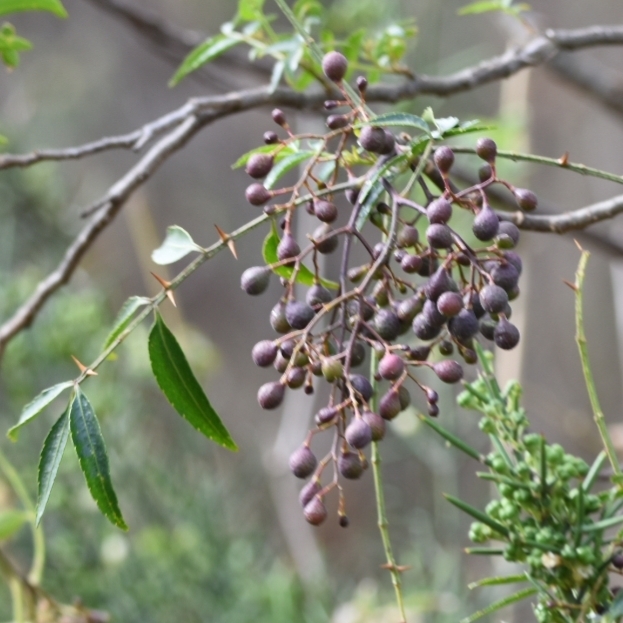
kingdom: Plantae
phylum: Tracheophyta
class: Magnoliopsida
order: Sapindales
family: Rutaceae
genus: Zanthoxylum
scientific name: Zanthoxylum coco
